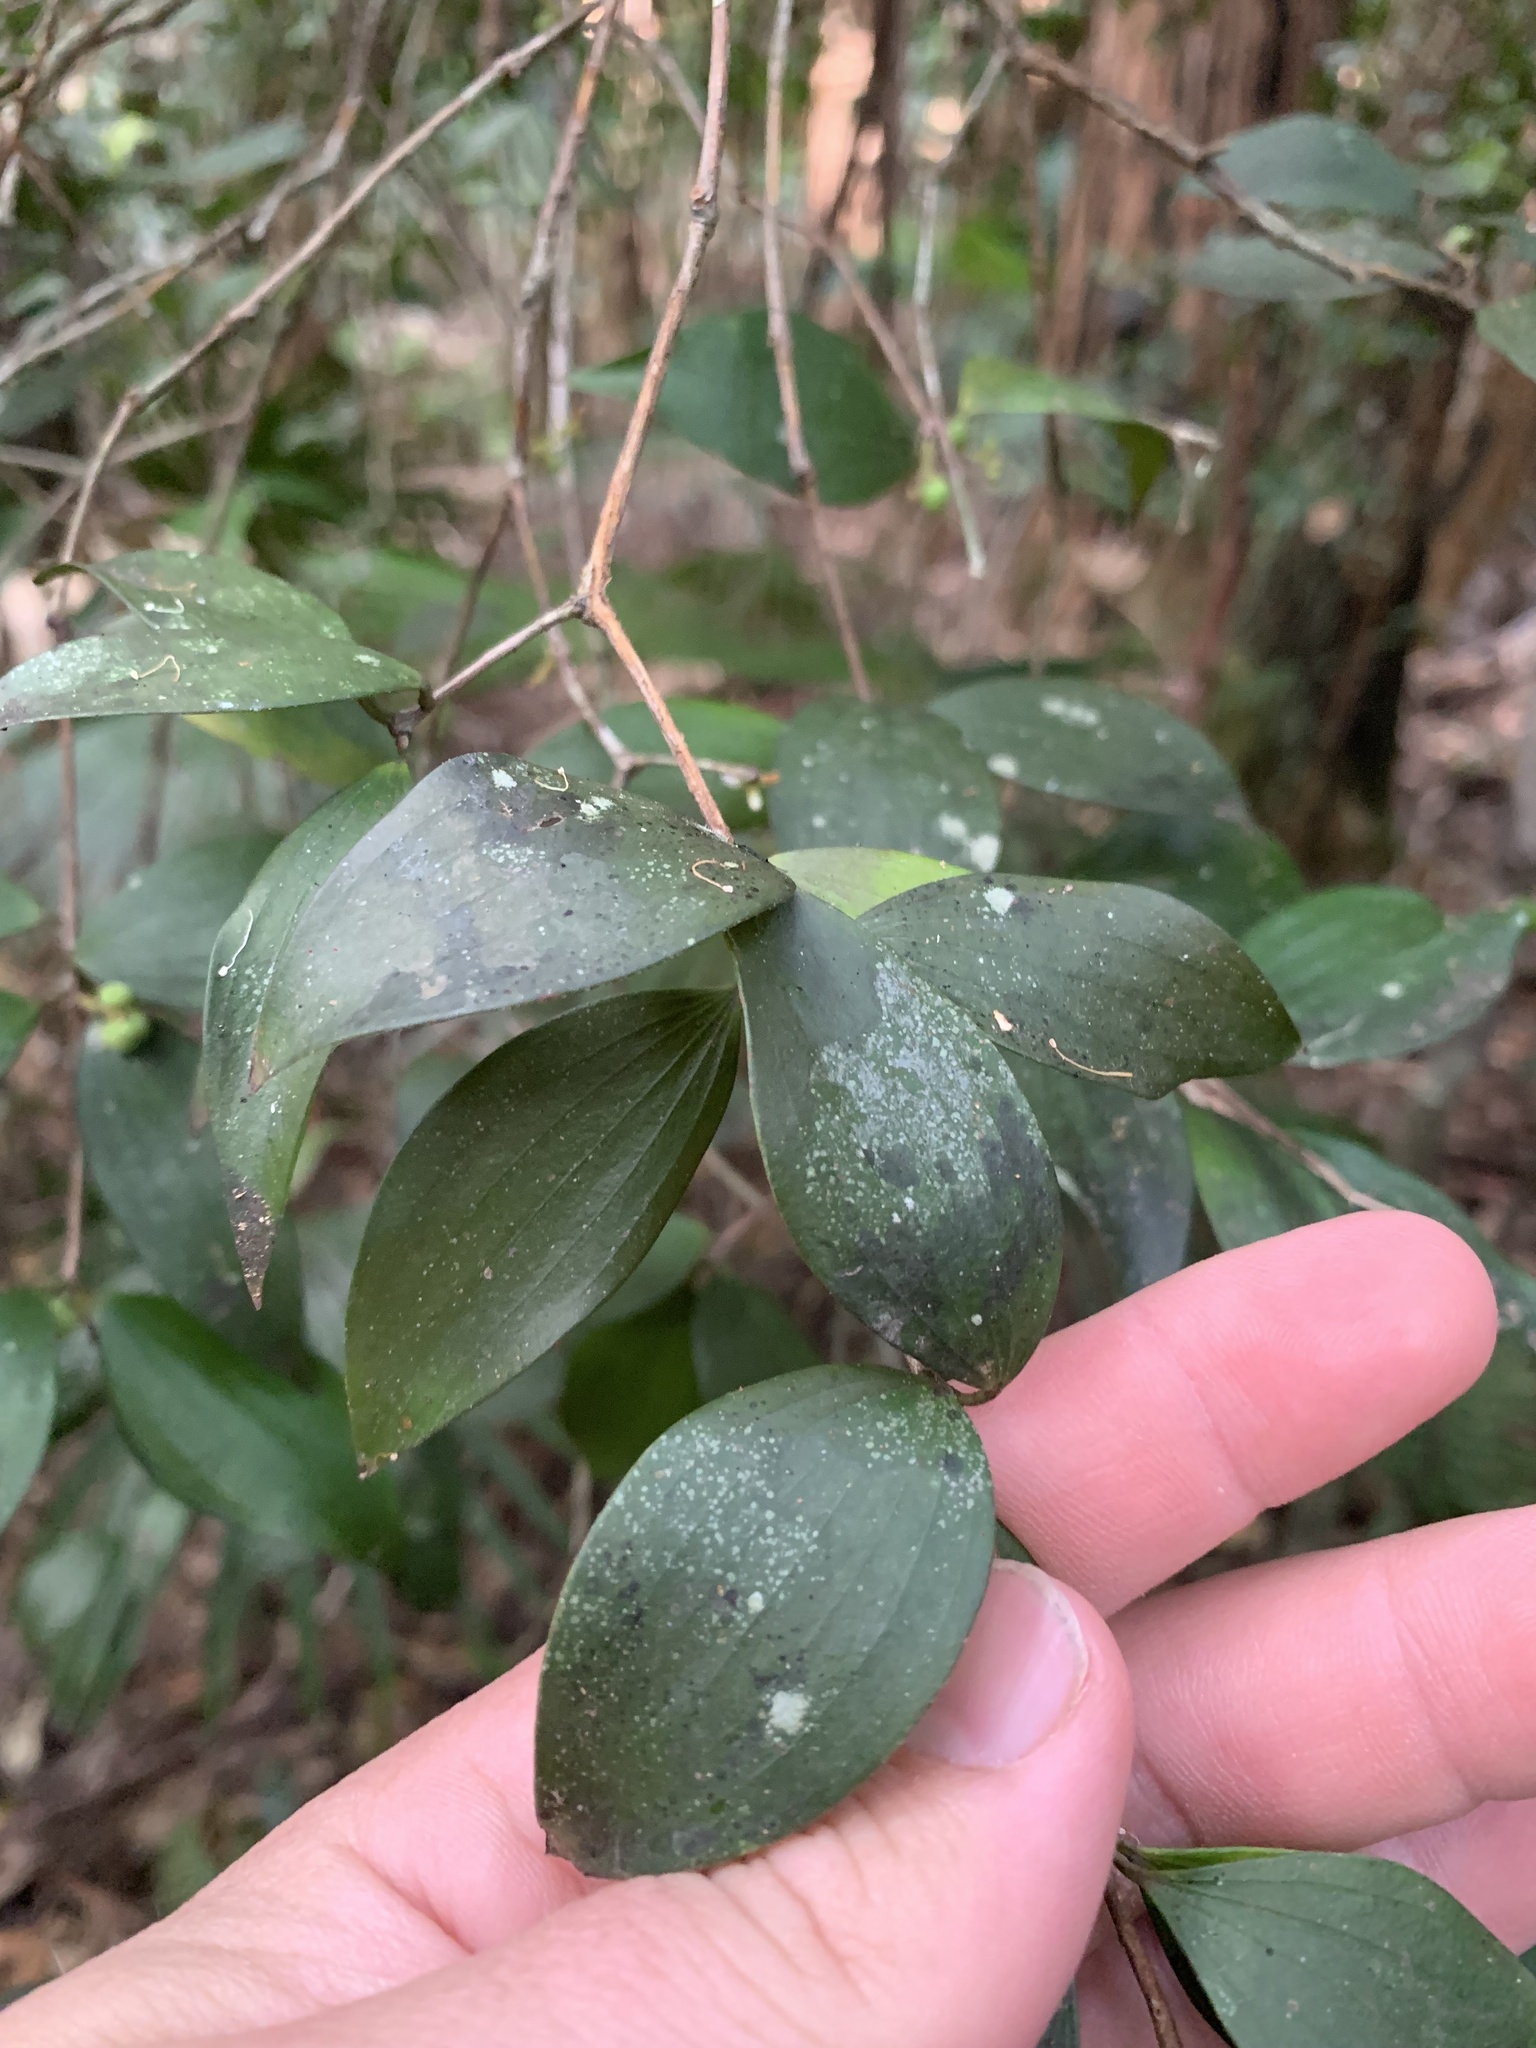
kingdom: Plantae
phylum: Tracheophyta
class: Magnoliopsida
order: Ericales
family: Ericaceae
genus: Trochocarpa
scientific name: Trochocarpa laurina
